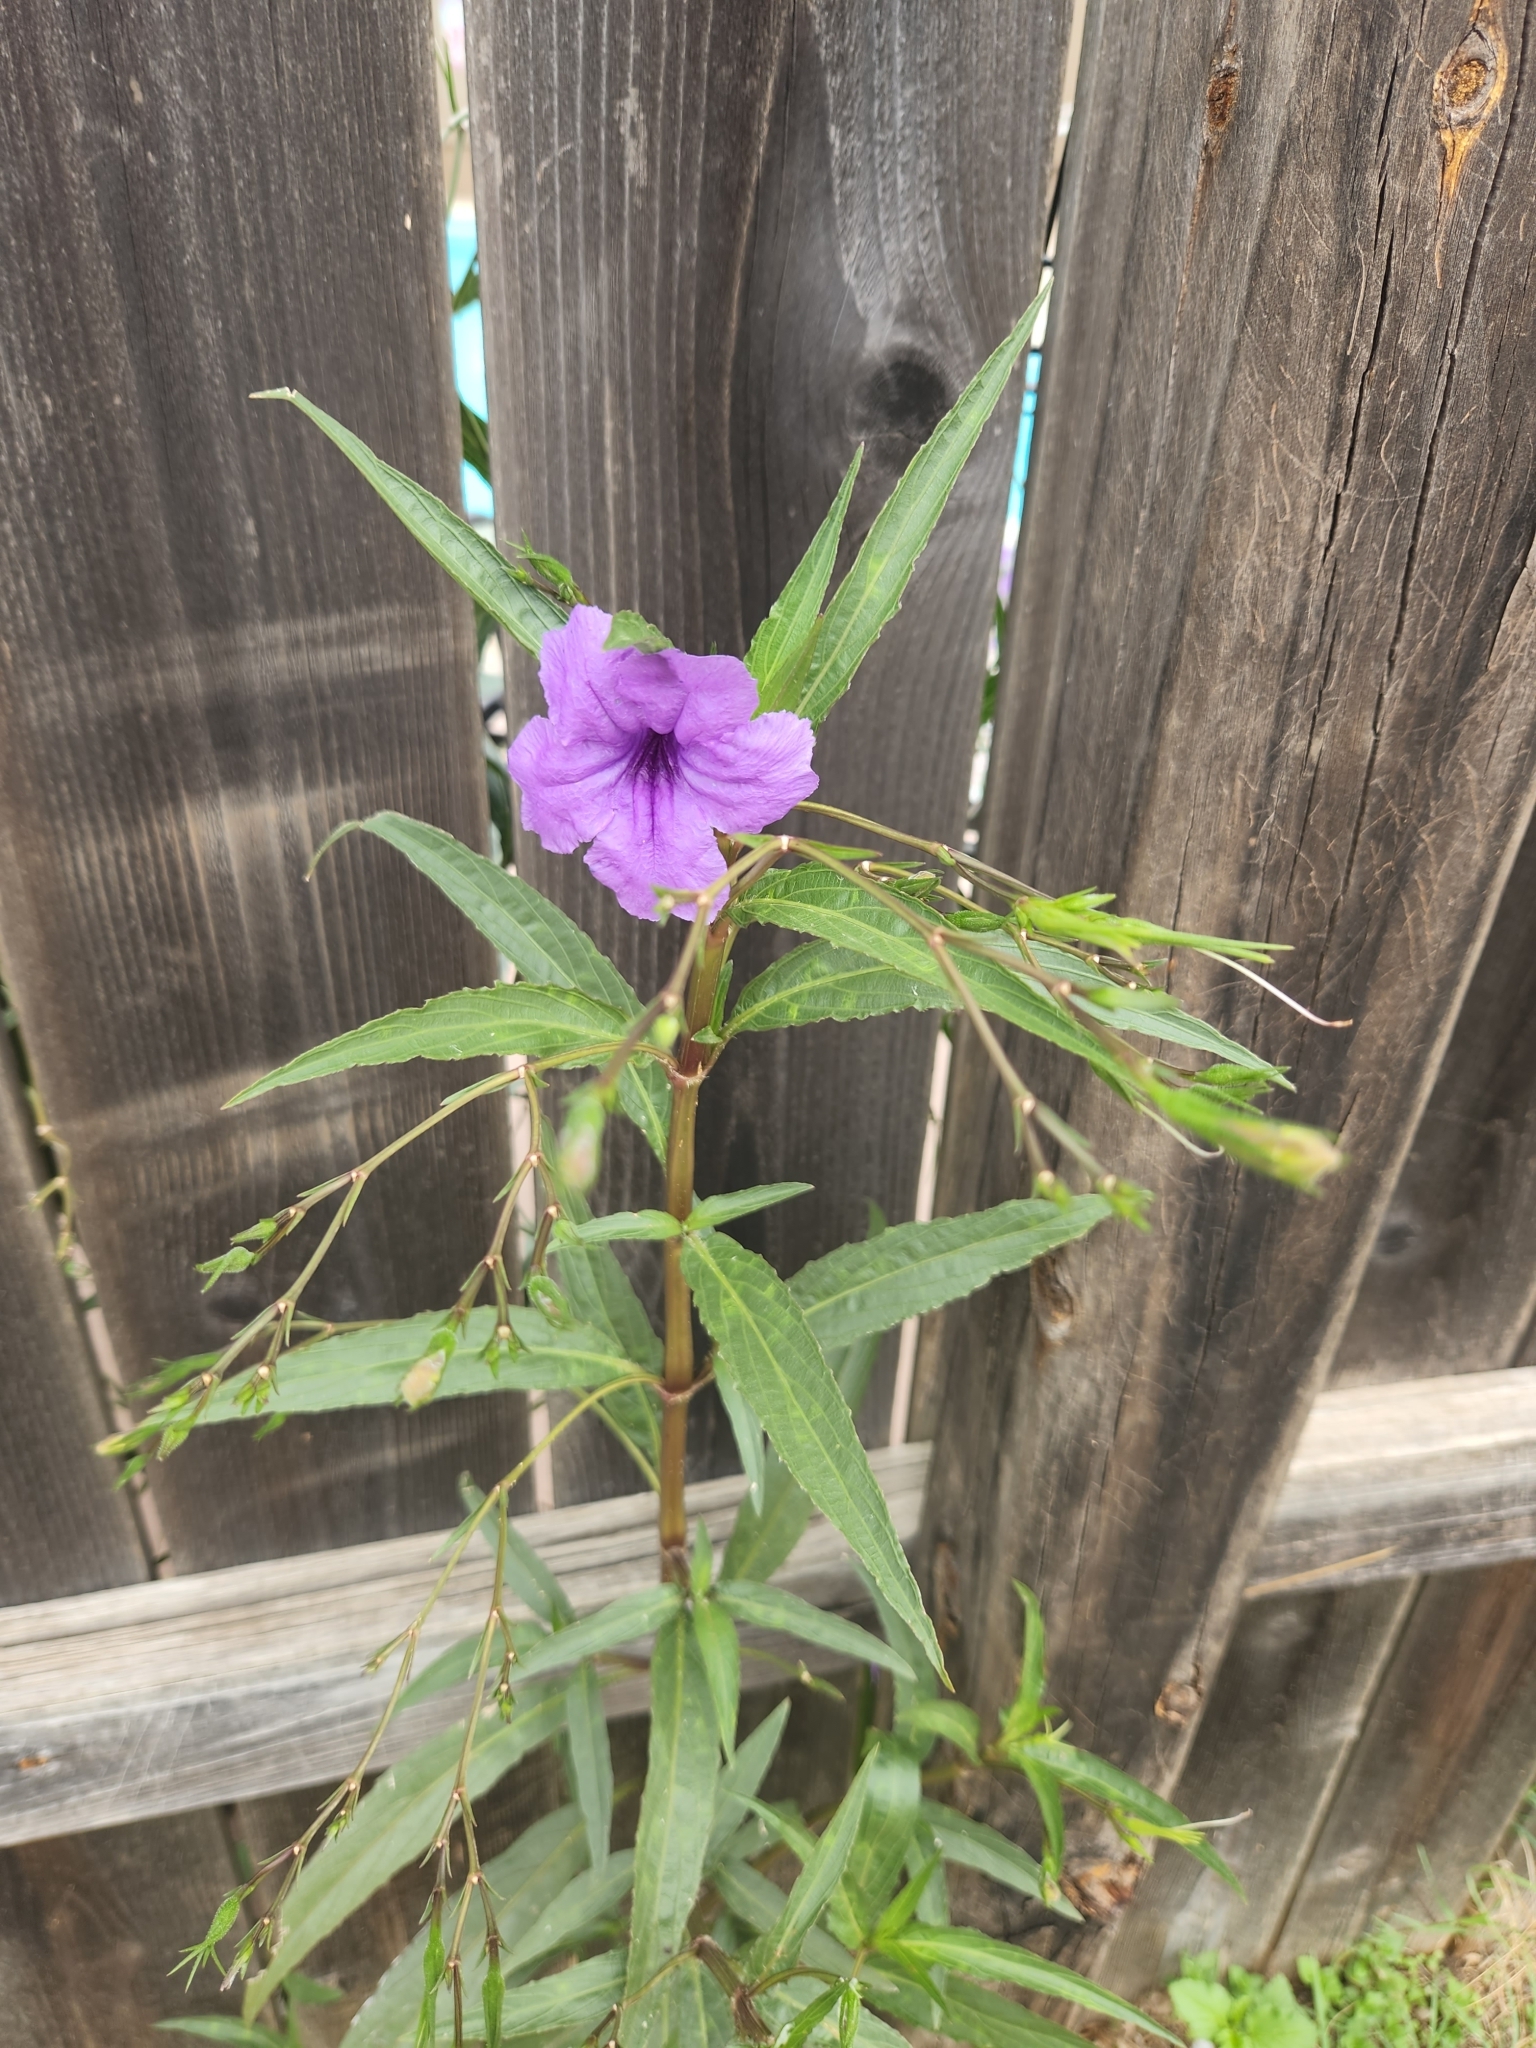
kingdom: Plantae
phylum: Tracheophyta
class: Magnoliopsida
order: Lamiales
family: Acanthaceae
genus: Ruellia
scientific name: Ruellia simplex
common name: Softseed wild petunia
